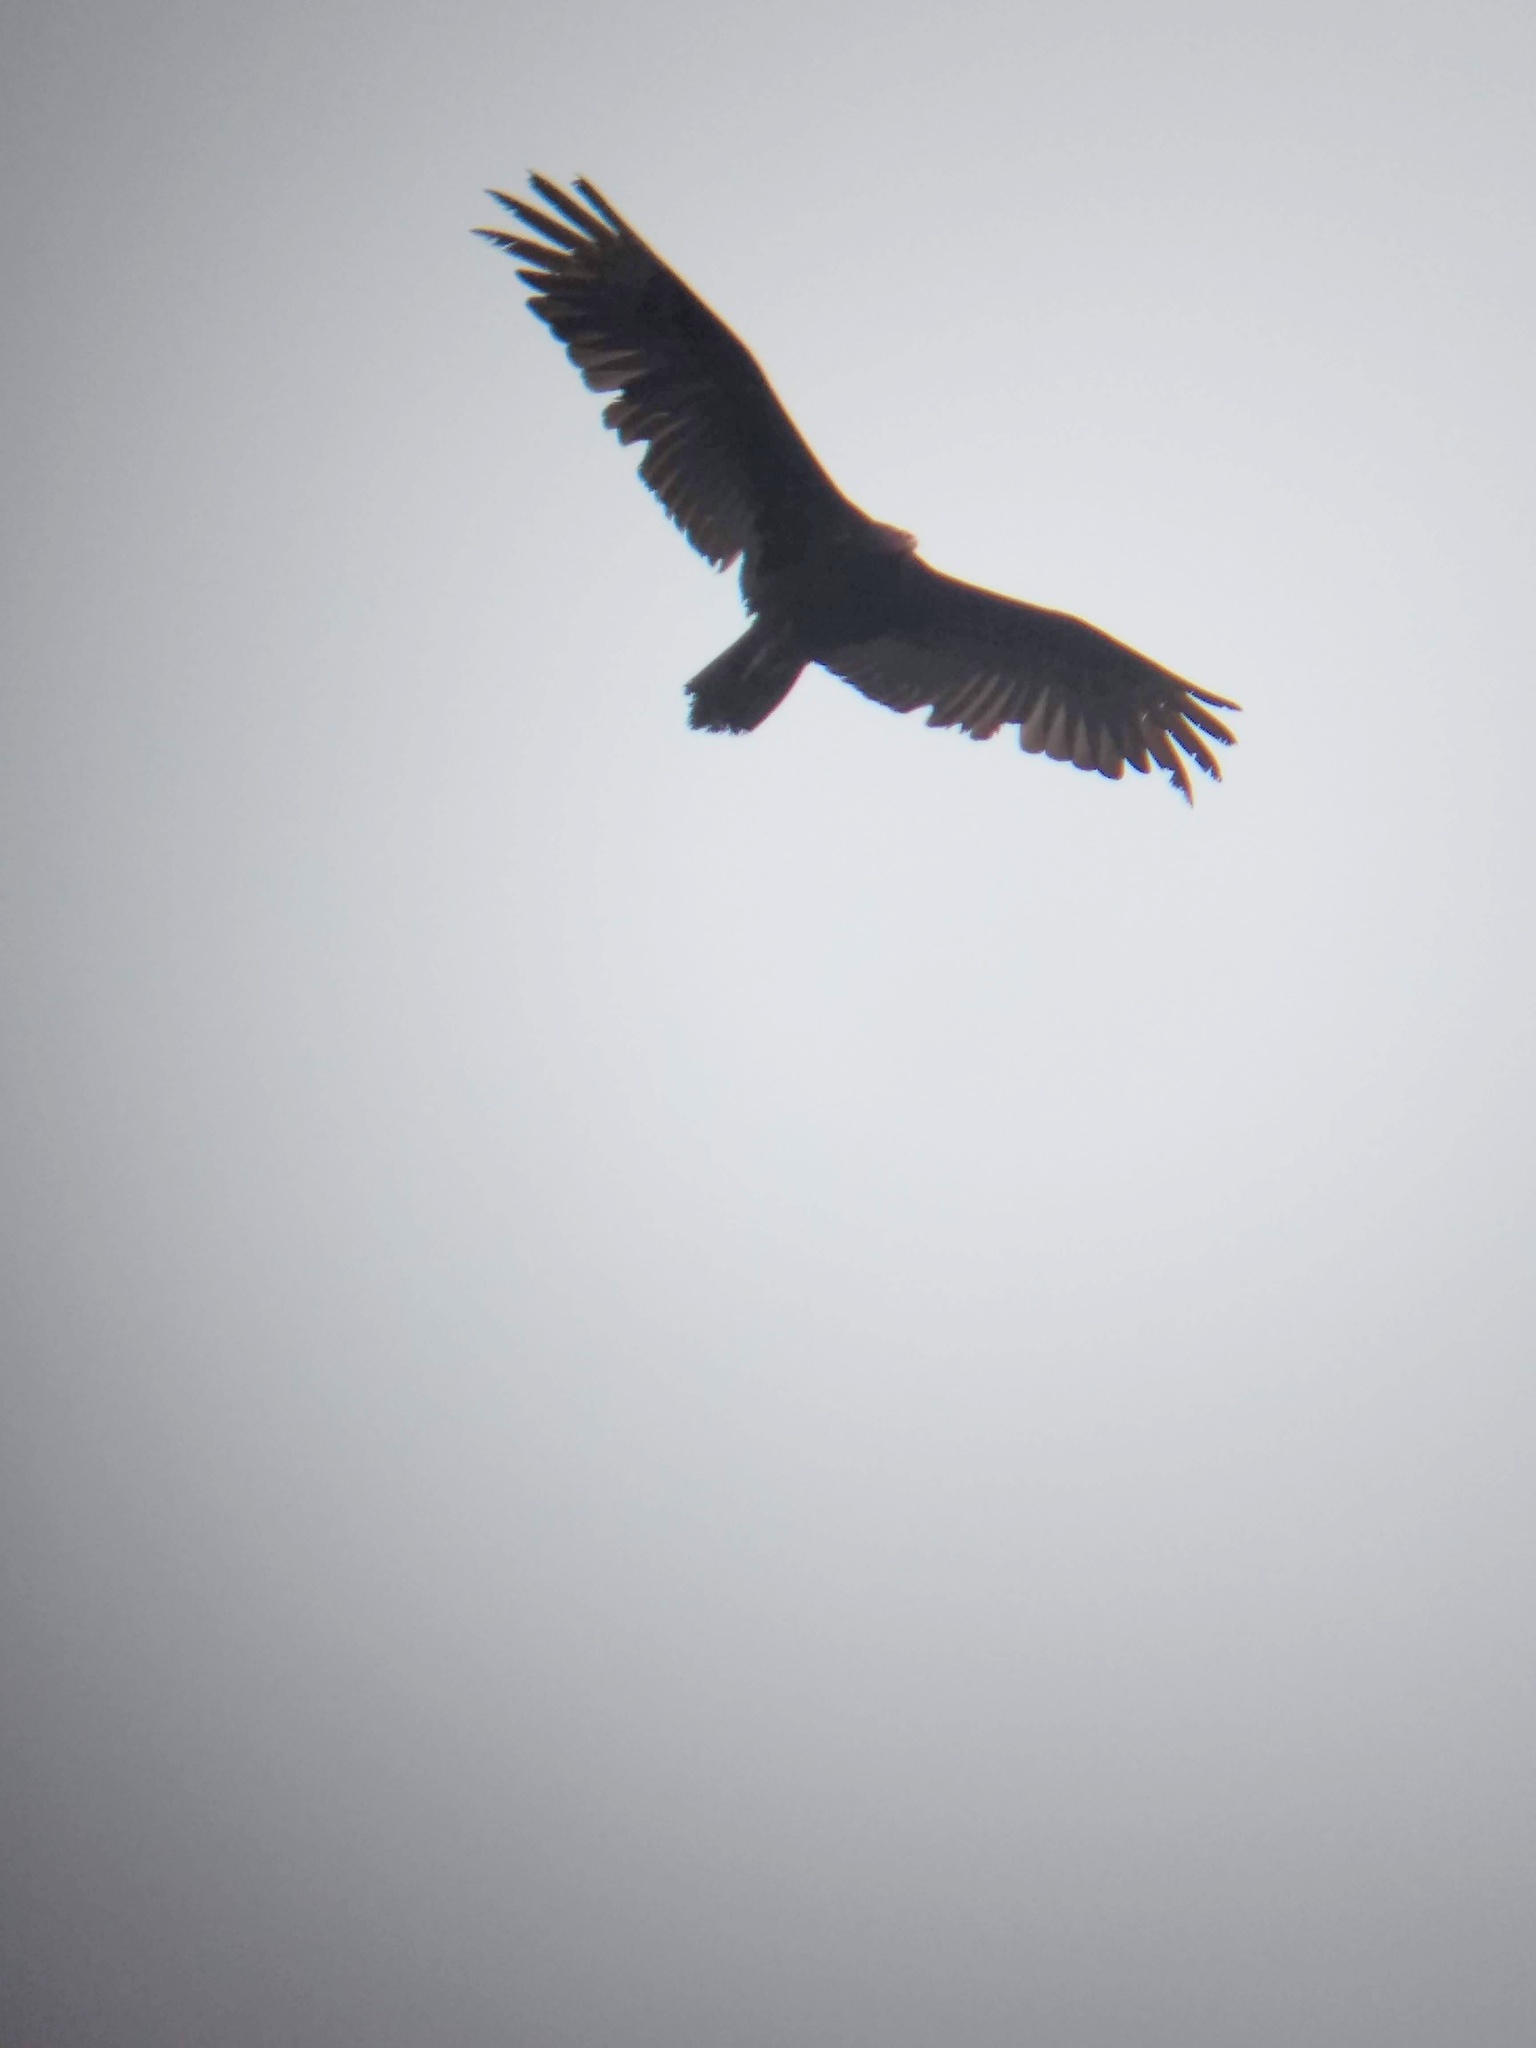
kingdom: Animalia
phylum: Chordata
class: Aves
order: Accipitriformes
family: Cathartidae
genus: Cathartes
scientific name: Cathartes aura
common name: Turkey vulture
